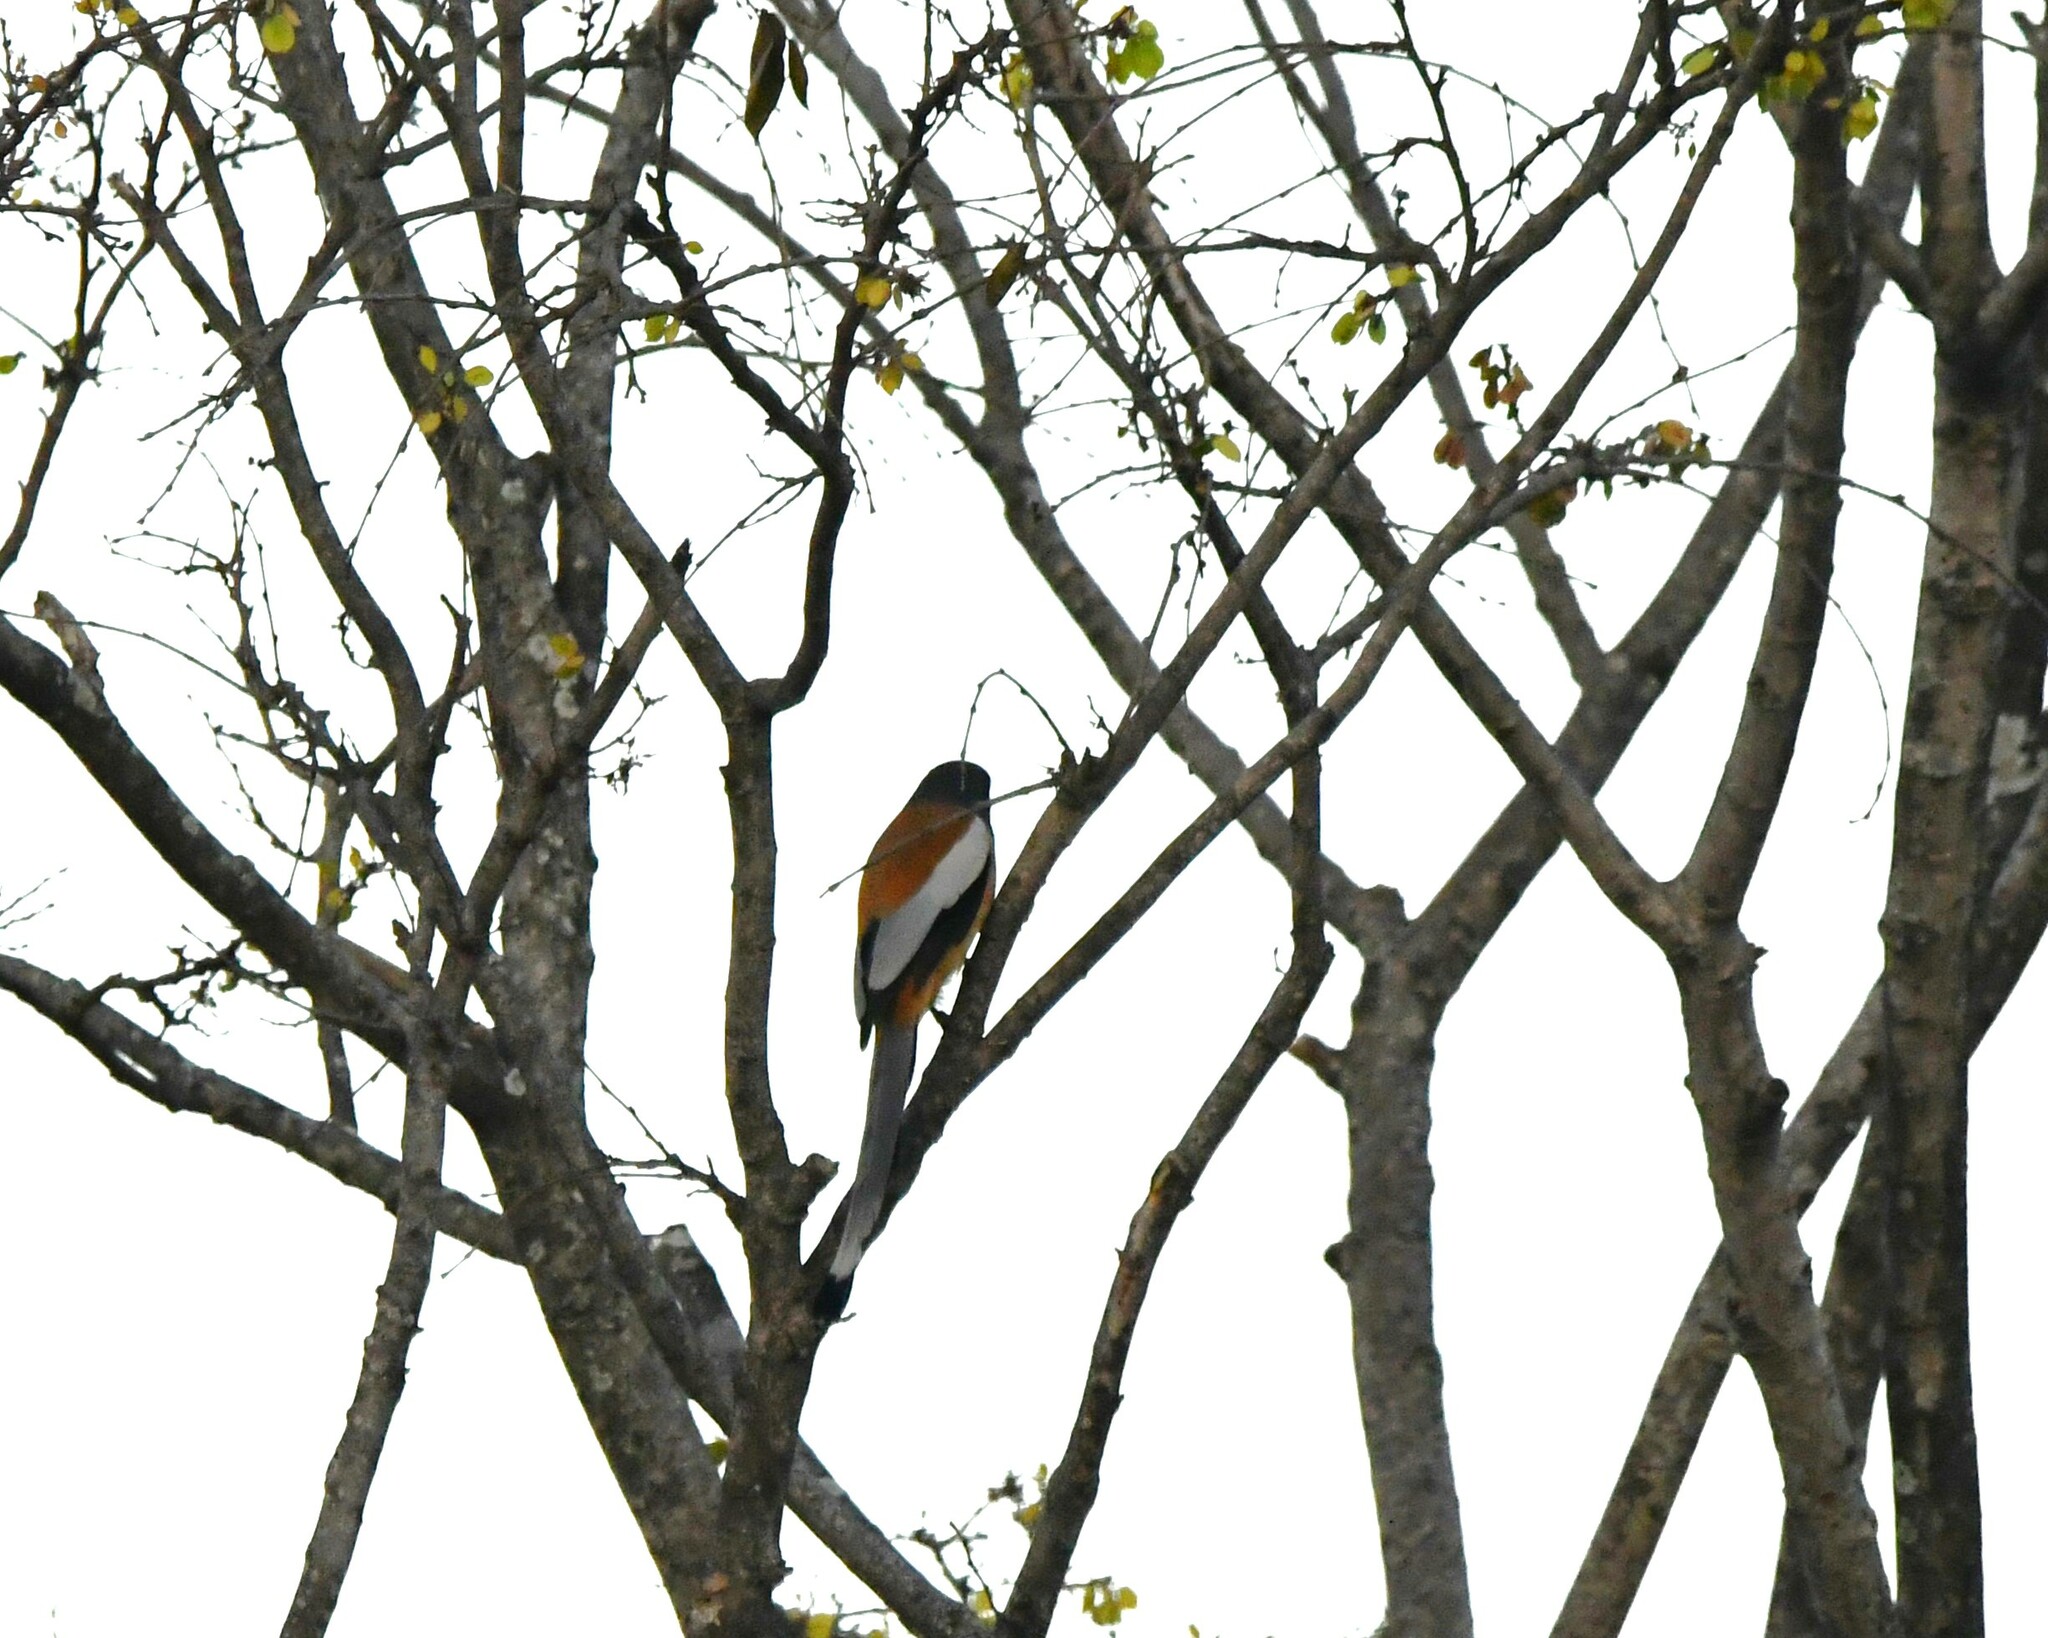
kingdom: Animalia
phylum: Chordata
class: Aves
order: Passeriformes
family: Corvidae
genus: Dendrocitta
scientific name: Dendrocitta vagabunda
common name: Rufous treepie
